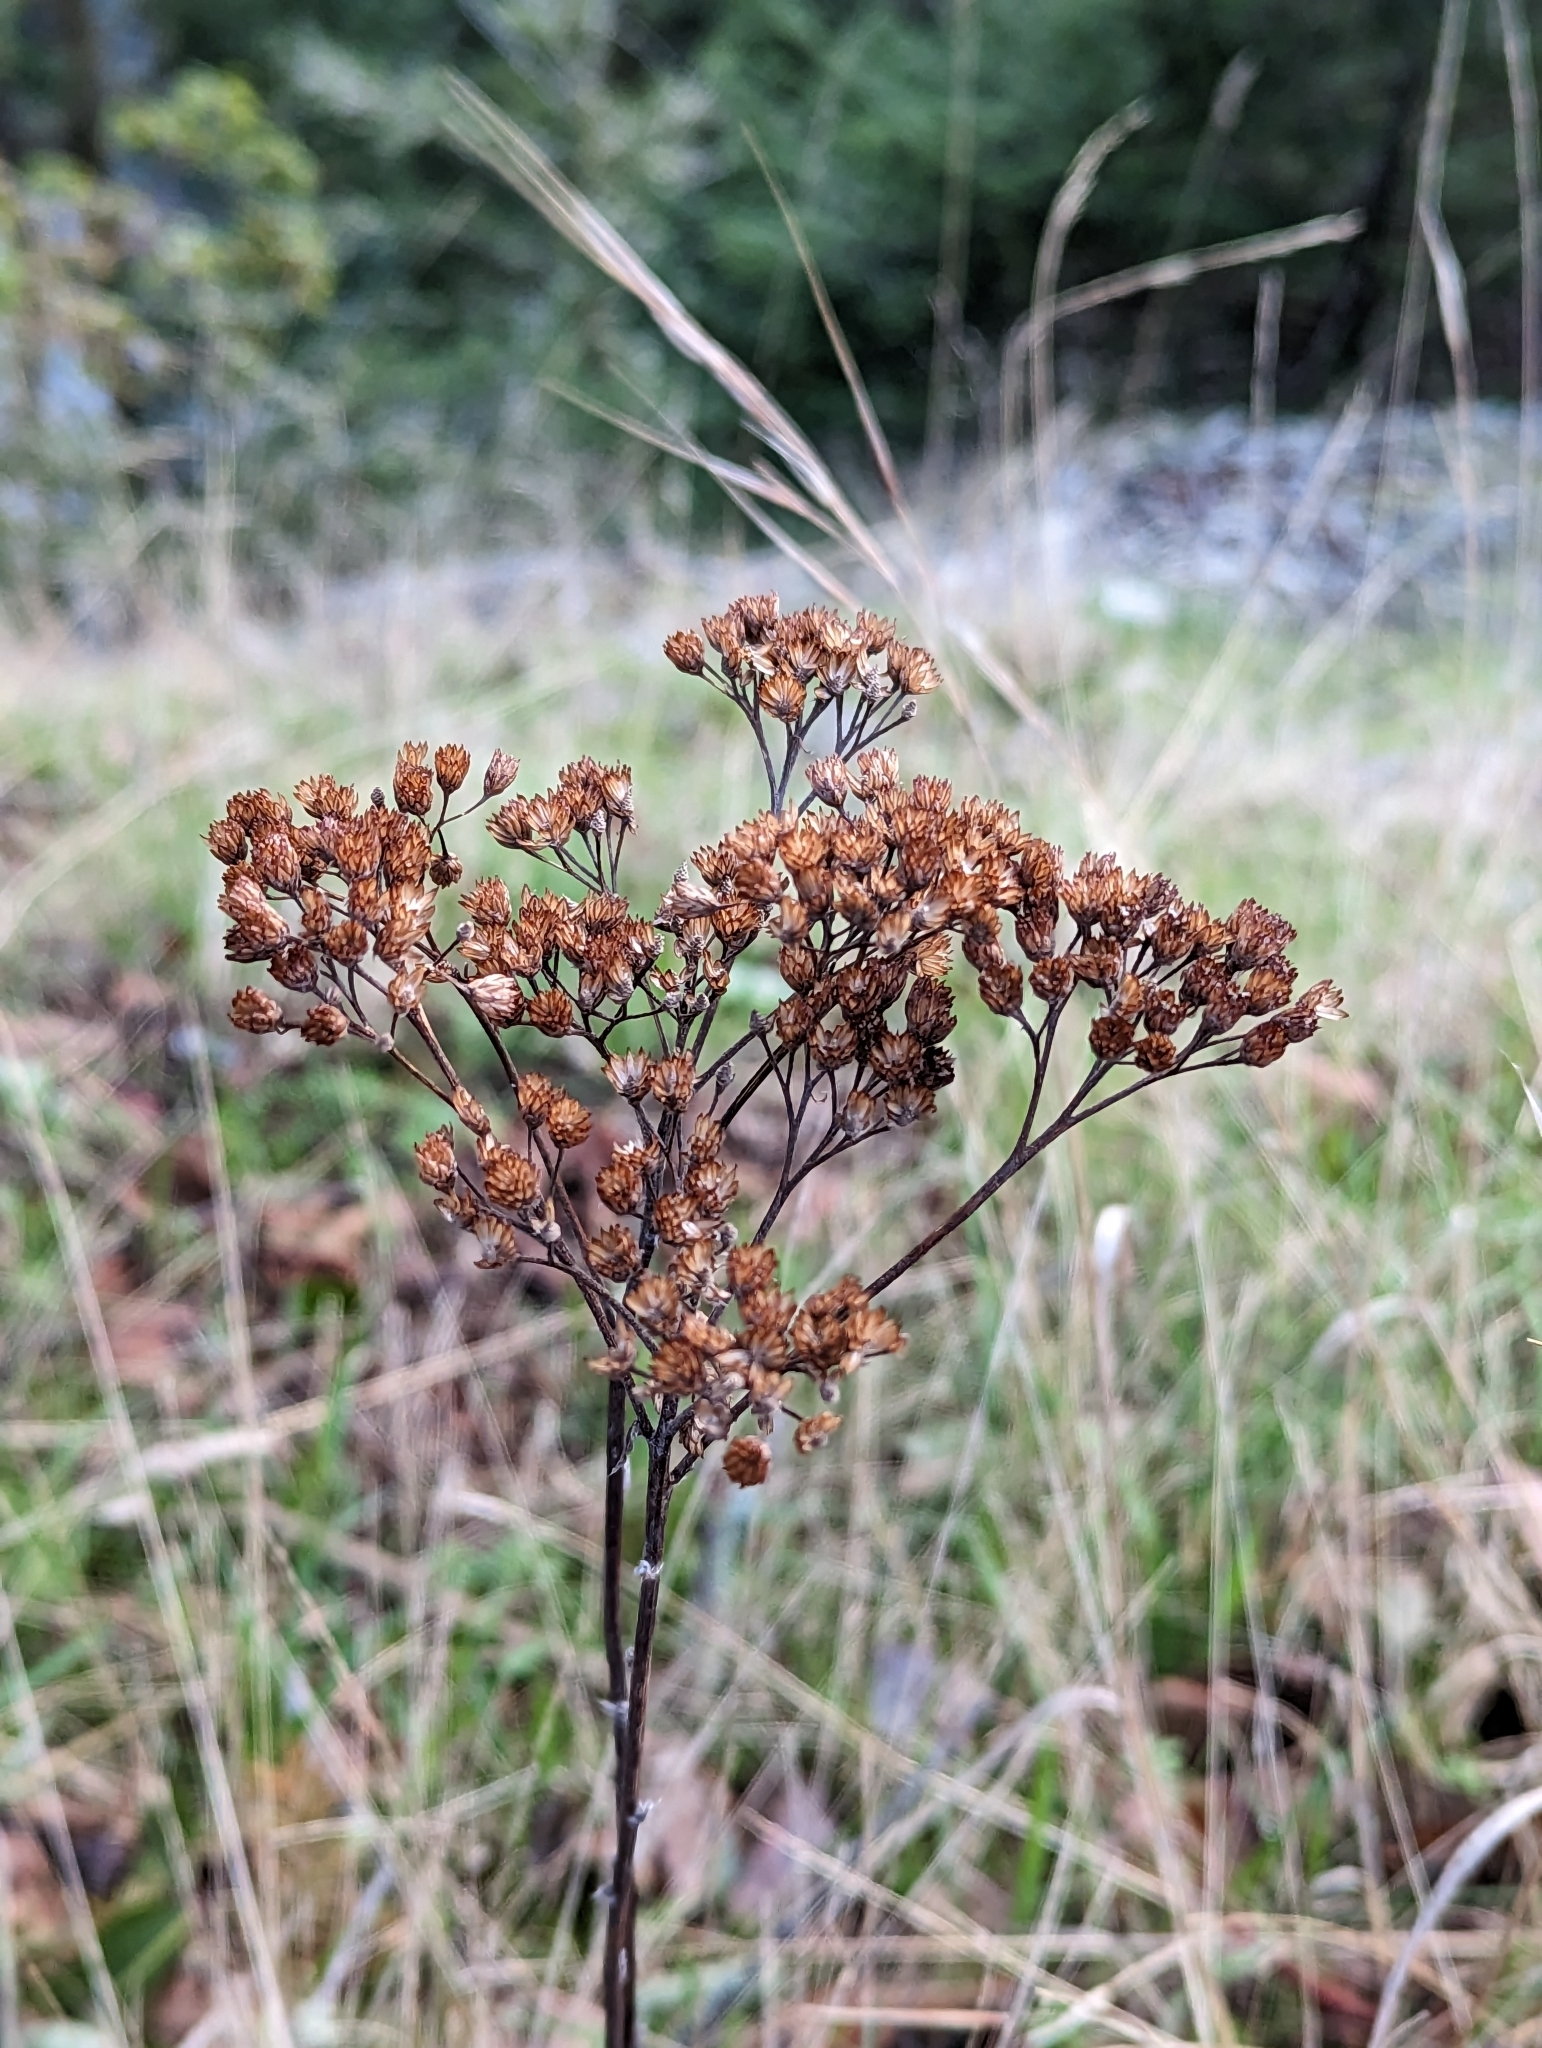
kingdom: Plantae
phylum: Tracheophyta
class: Magnoliopsida
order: Asterales
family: Asteraceae
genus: Achillea
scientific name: Achillea millefolium
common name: Yarrow
